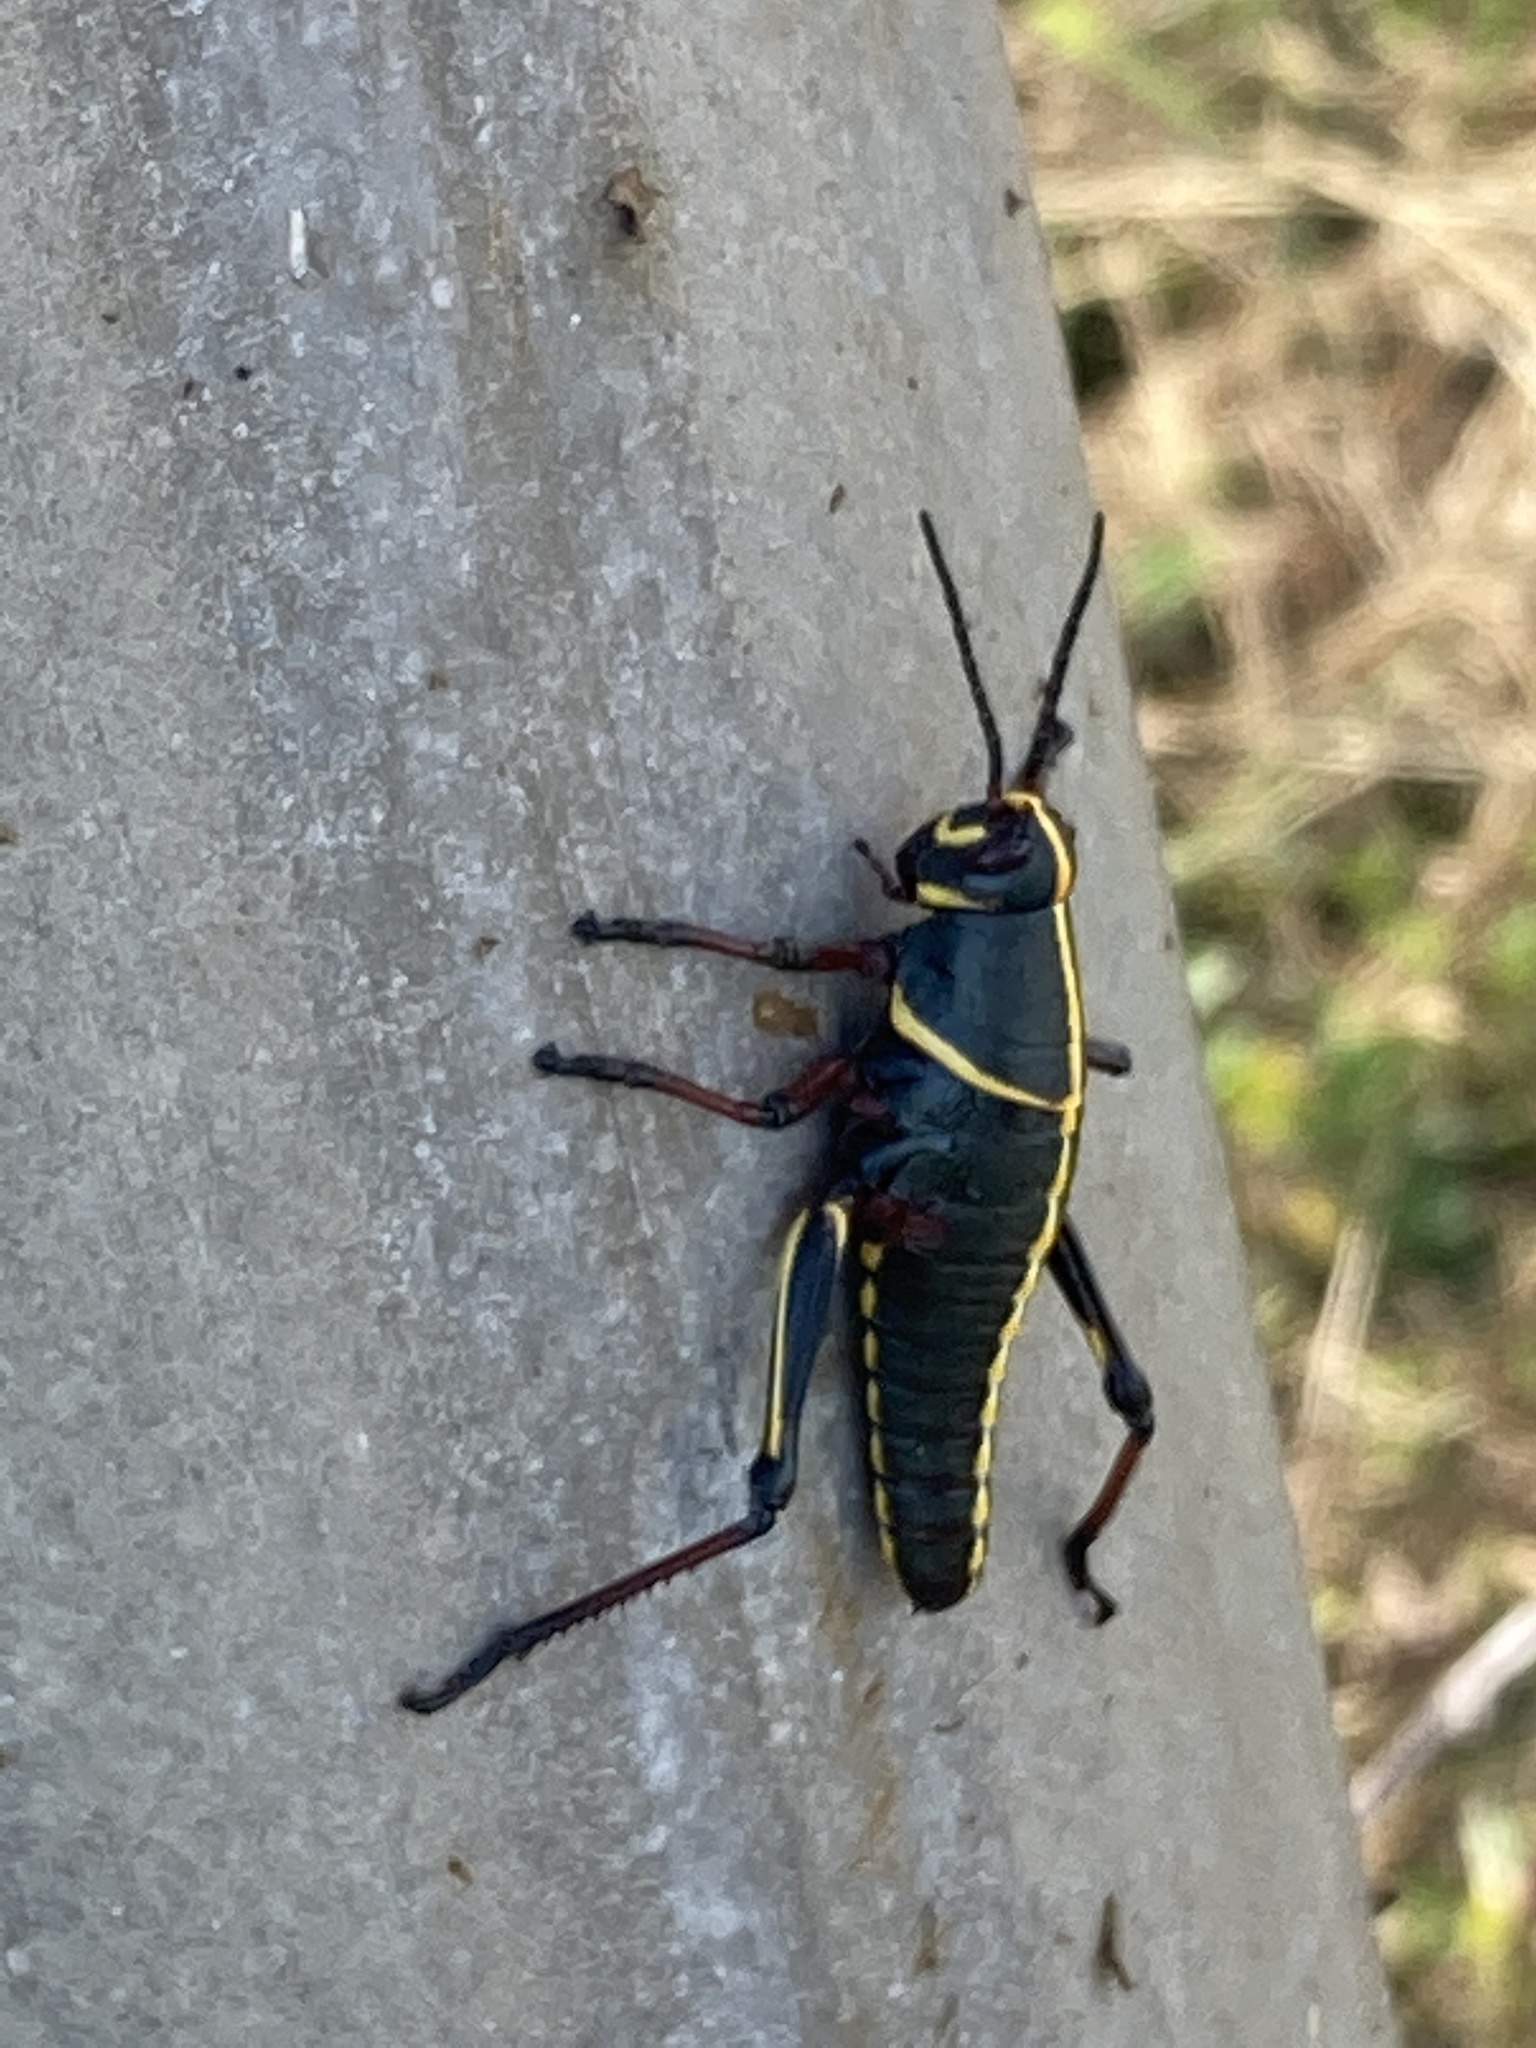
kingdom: Animalia
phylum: Arthropoda
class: Insecta
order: Orthoptera
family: Romaleidae
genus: Romalea
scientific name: Romalea microptera
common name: Eastern lubber grasshopper
